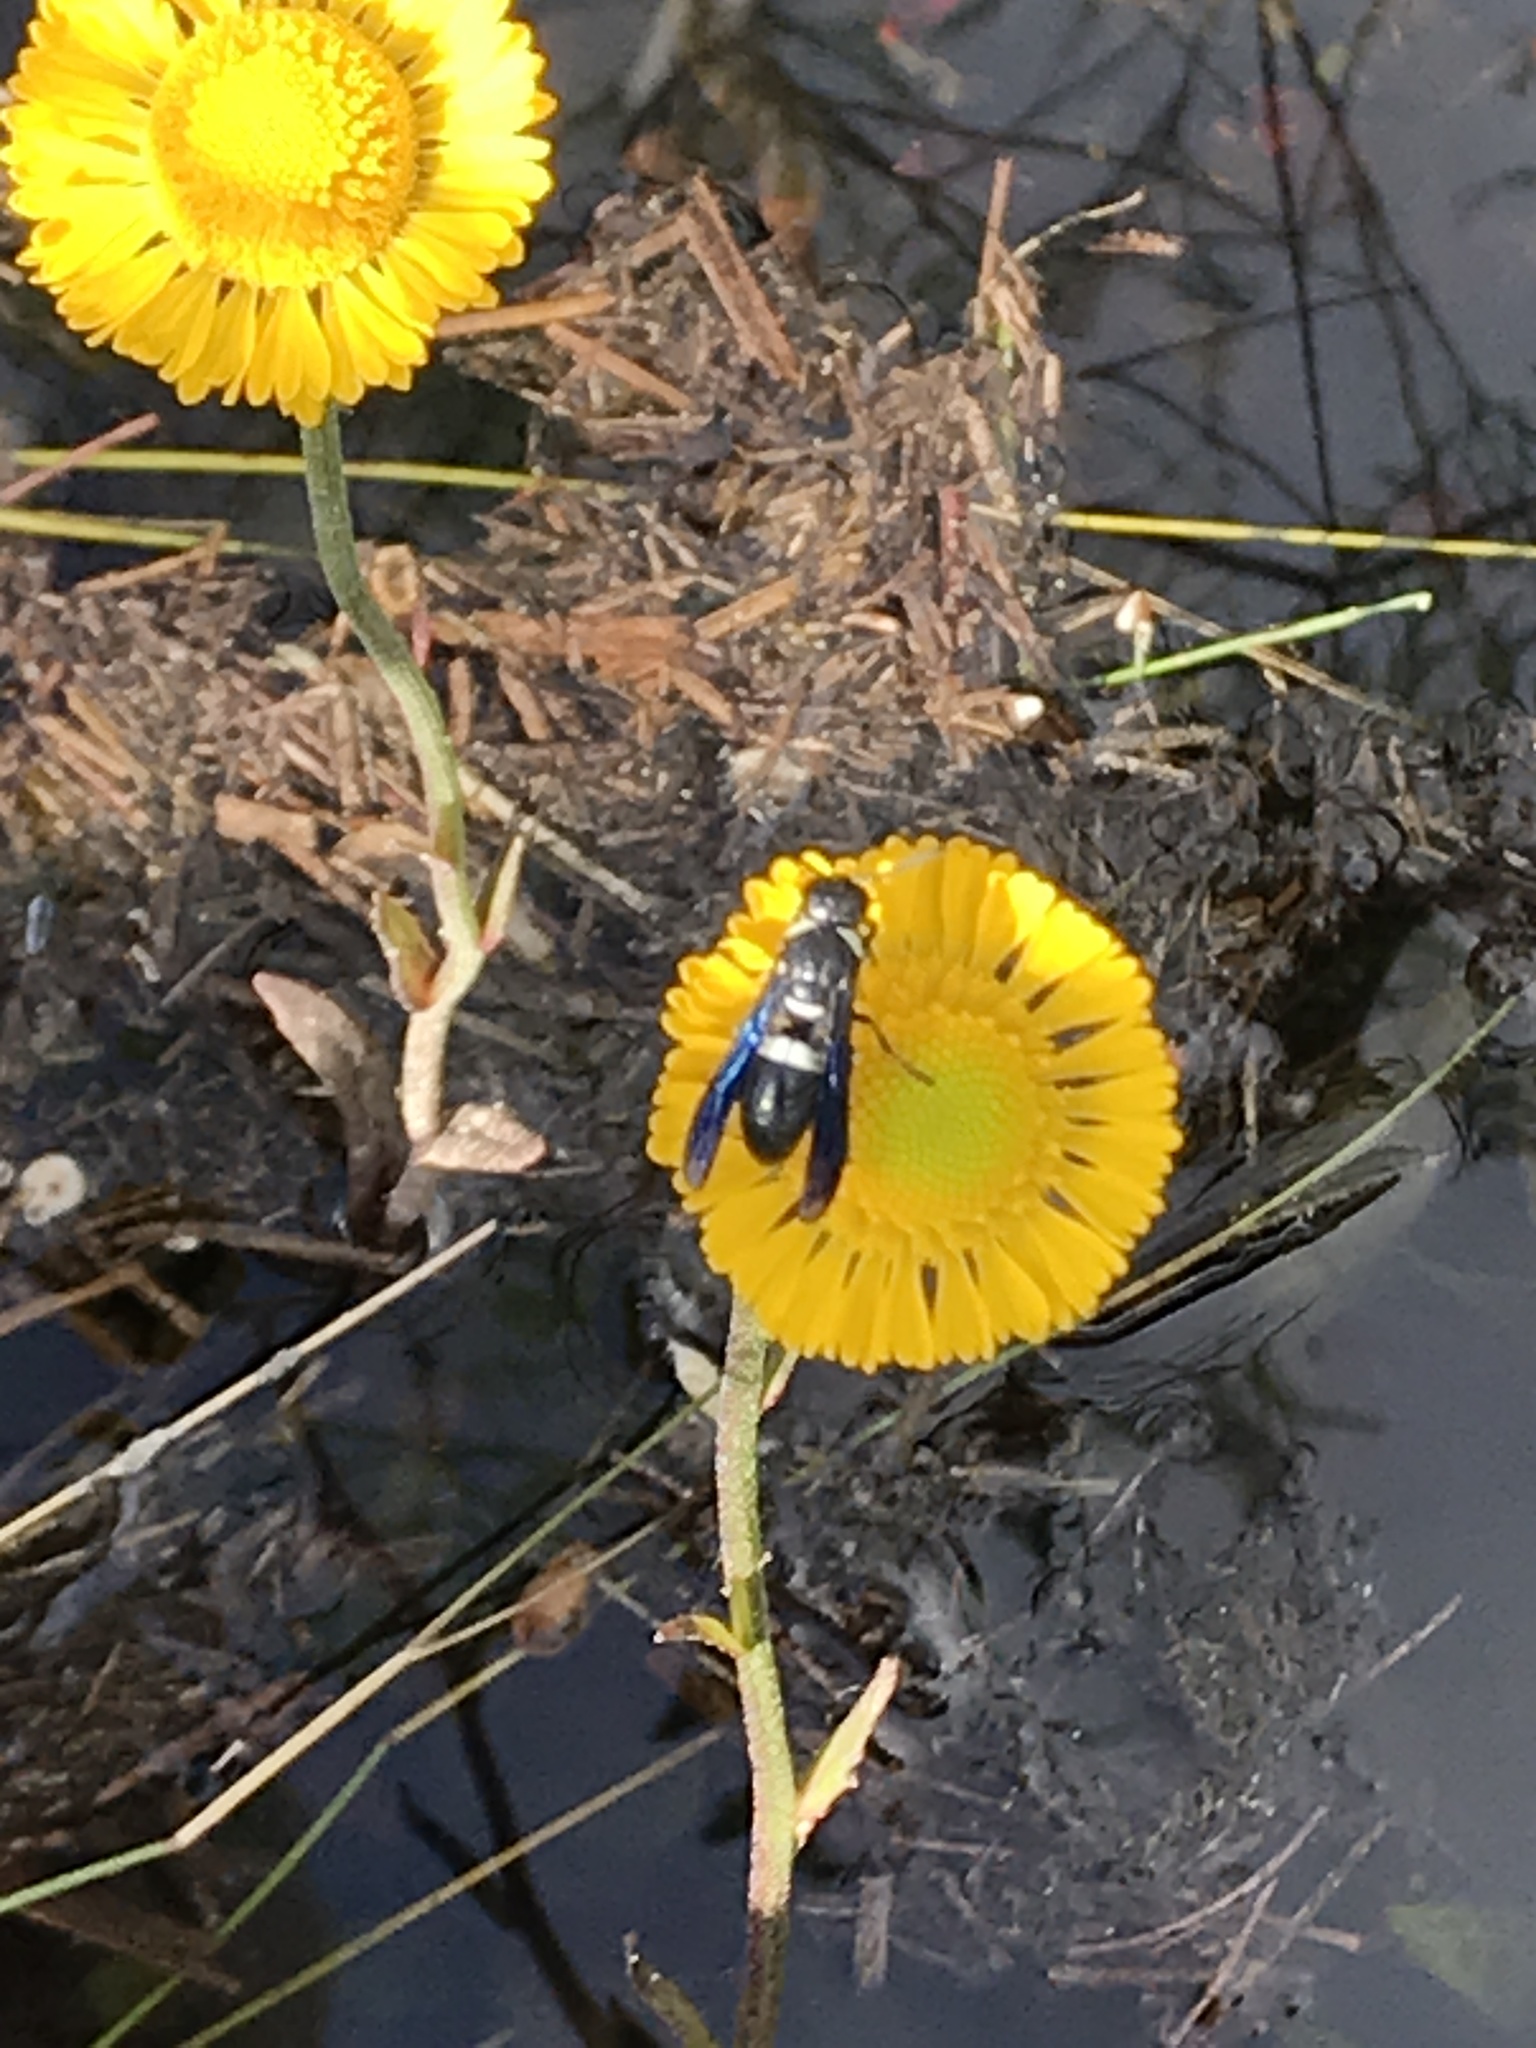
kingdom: Animalia
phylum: Arthropoda
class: Insecta
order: Hymenoptera
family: Eumenidae
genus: Monobia
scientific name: Monobia quadridens
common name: Four-toothed mason wasp
